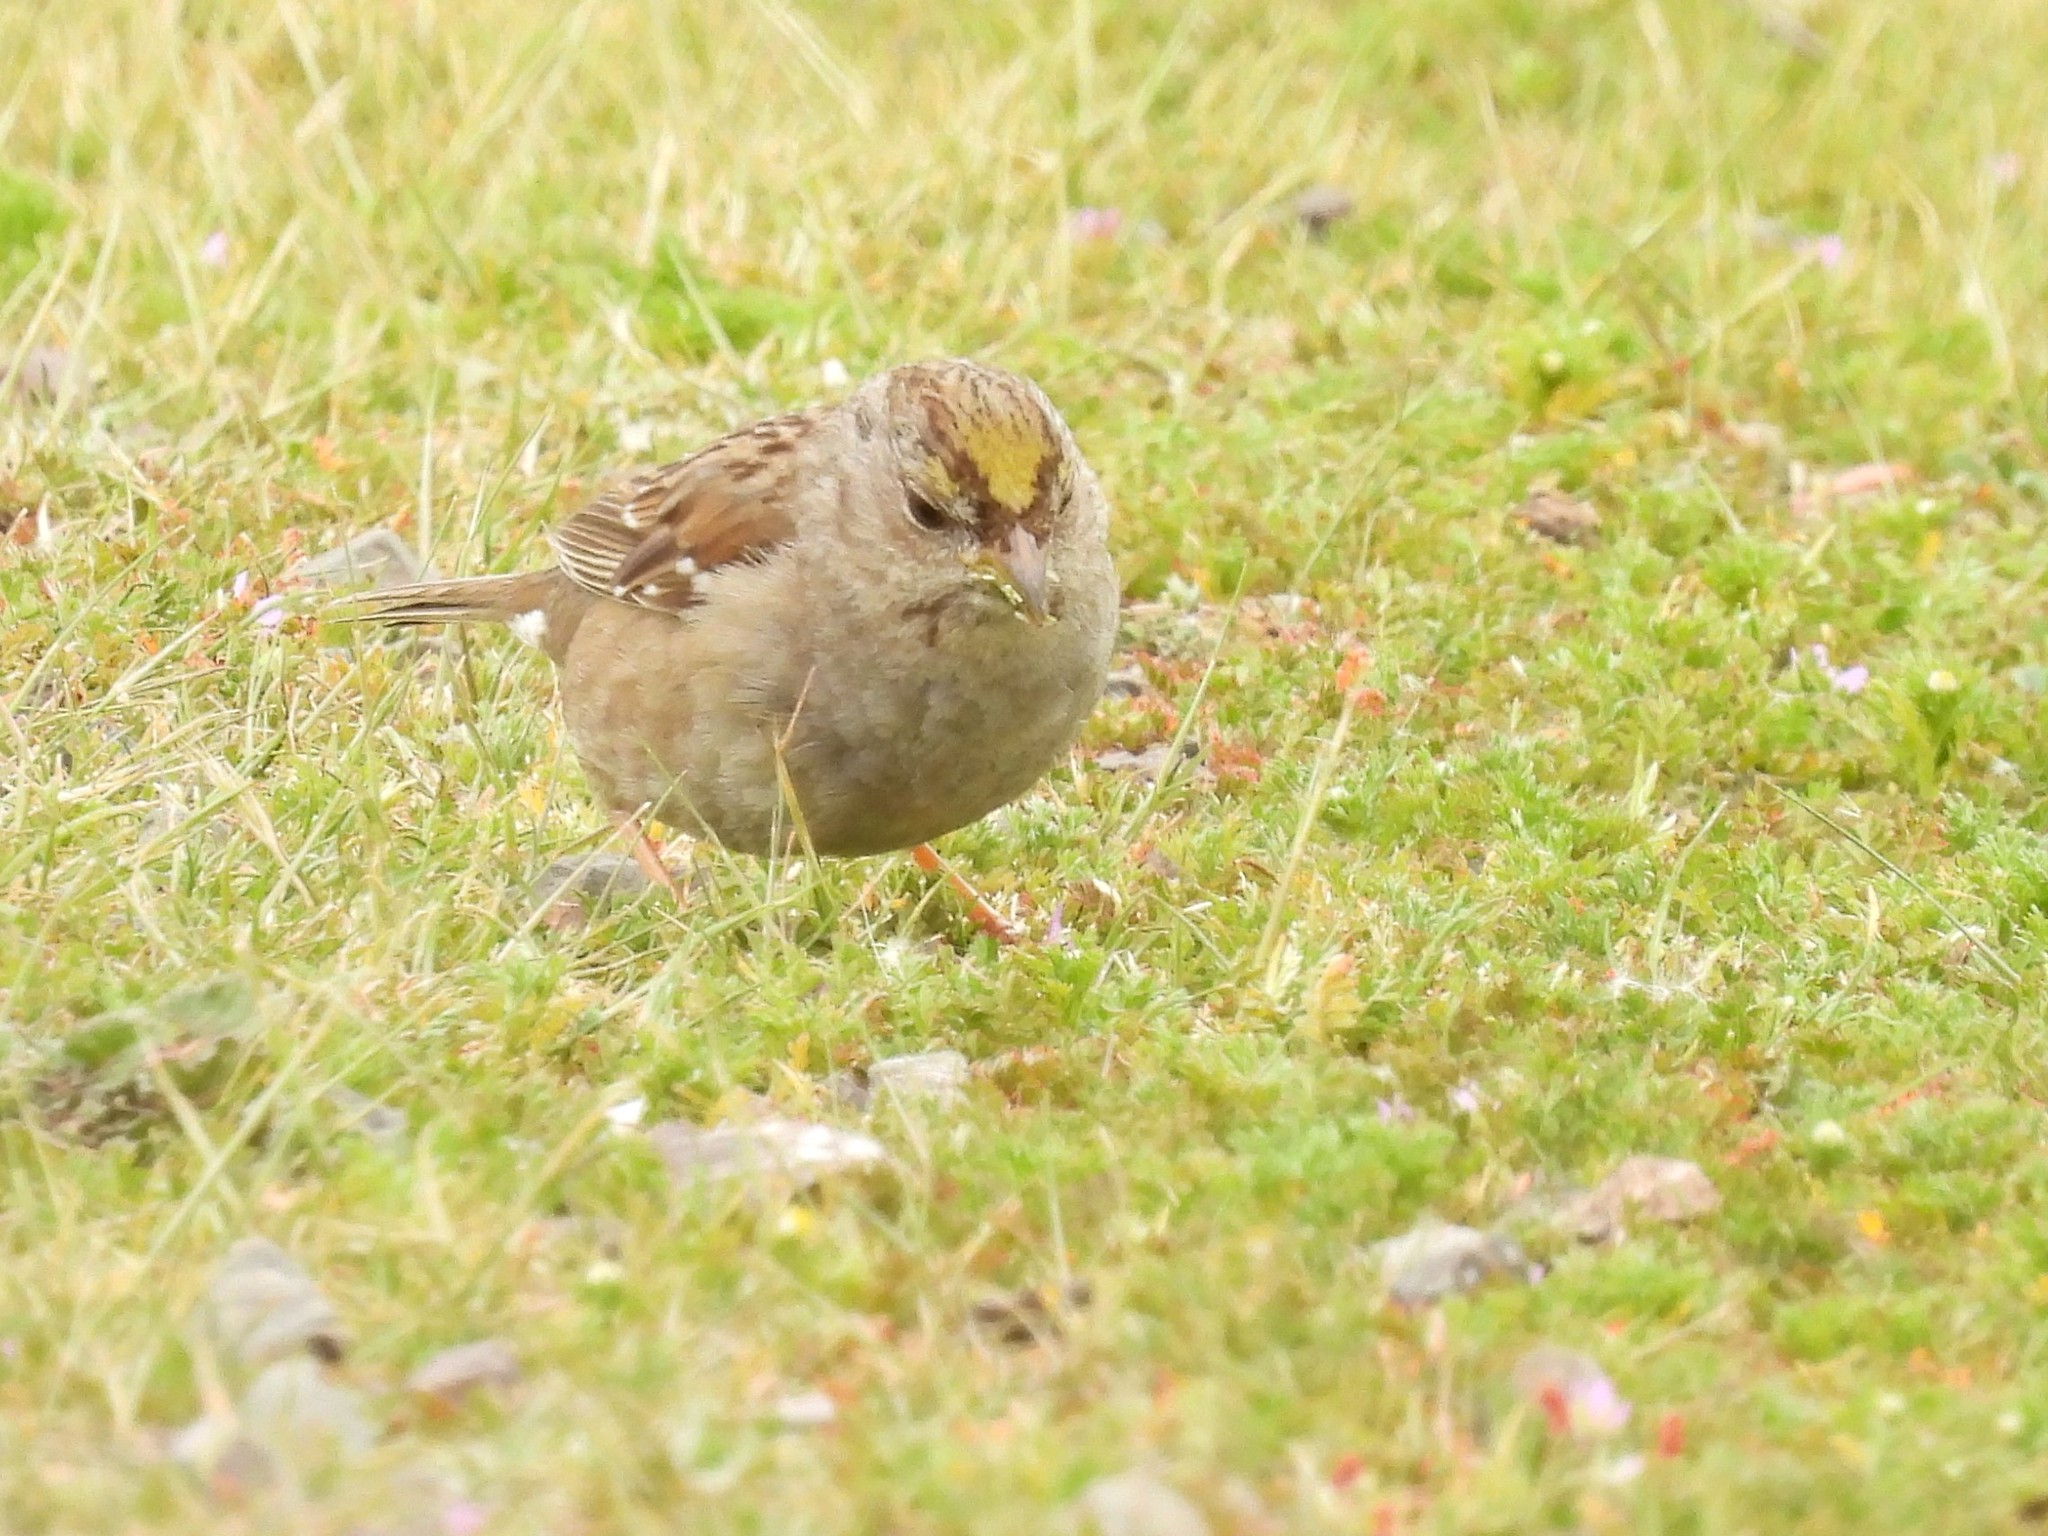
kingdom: Animalia
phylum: Chordata
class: Aves
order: Passeriformes
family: Passerellidae
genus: Zonotrichia
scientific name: Zonotrichia atricapilla
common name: Golden-crowned sparrow
